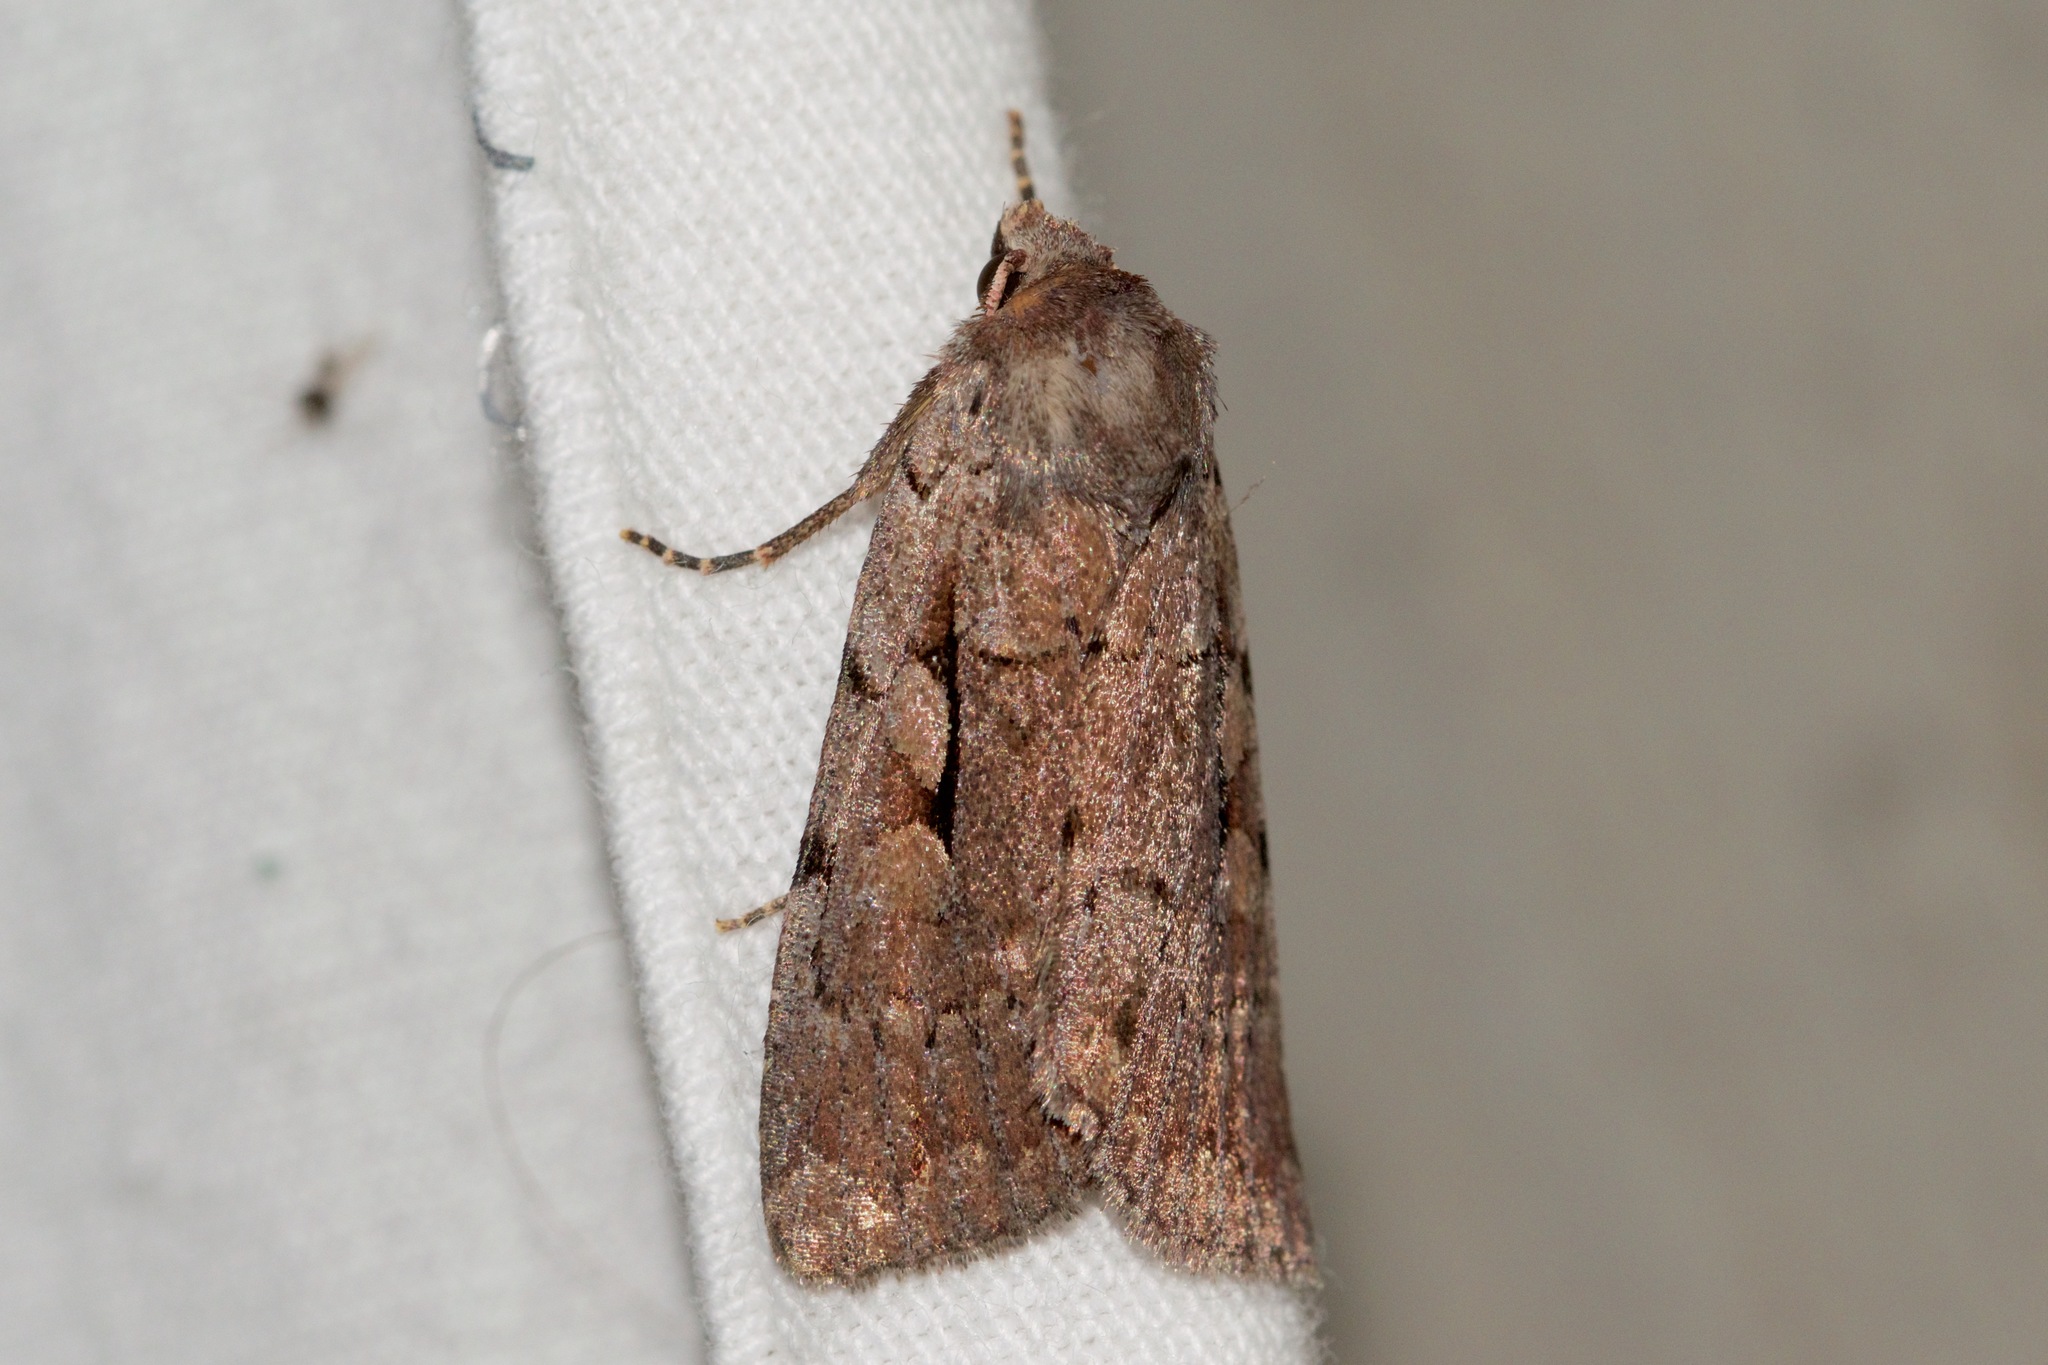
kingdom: Animalia
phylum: Arthropoda
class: Insecta
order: Lepidoptera
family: Noctuidae
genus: Xestia
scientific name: Xestia badicollis
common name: Northern variable dart
